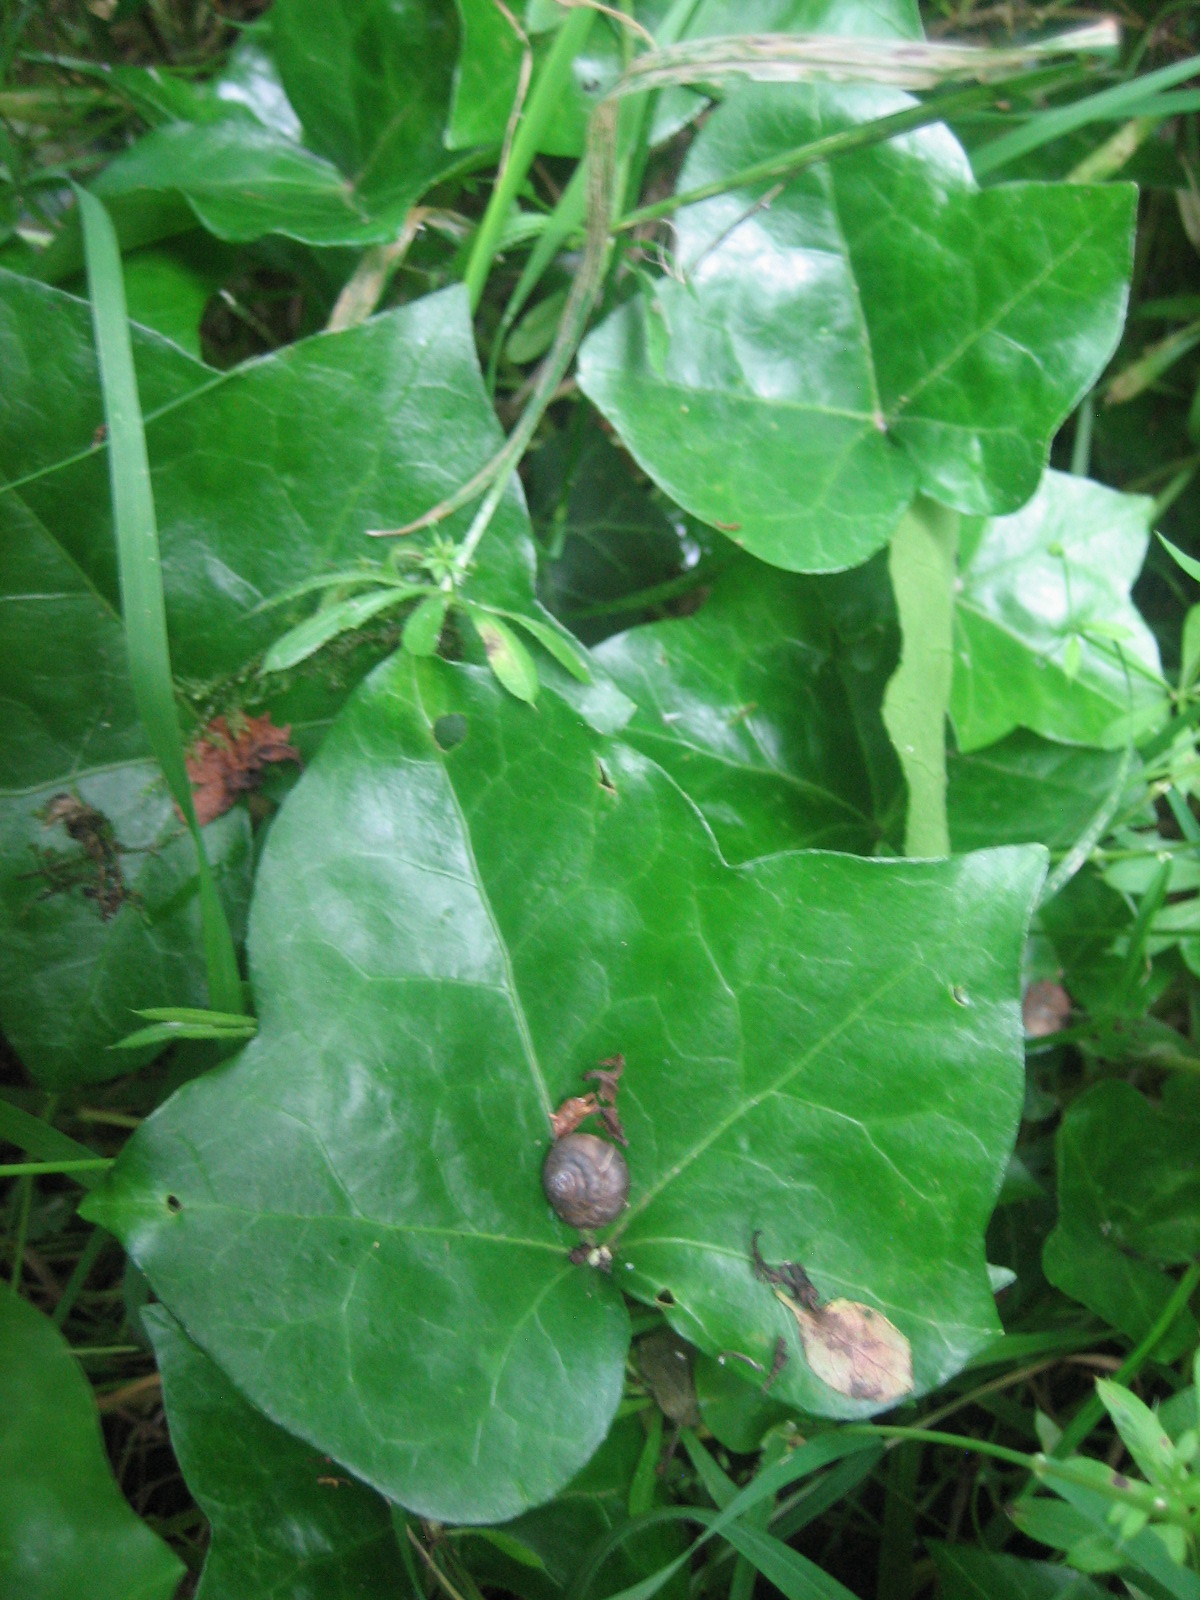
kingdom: Plantae
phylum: Tracheophyta
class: Magnoliopsida
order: Apiales
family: Araliaceae
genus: Hedera
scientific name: Hedera helix
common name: Ivy
